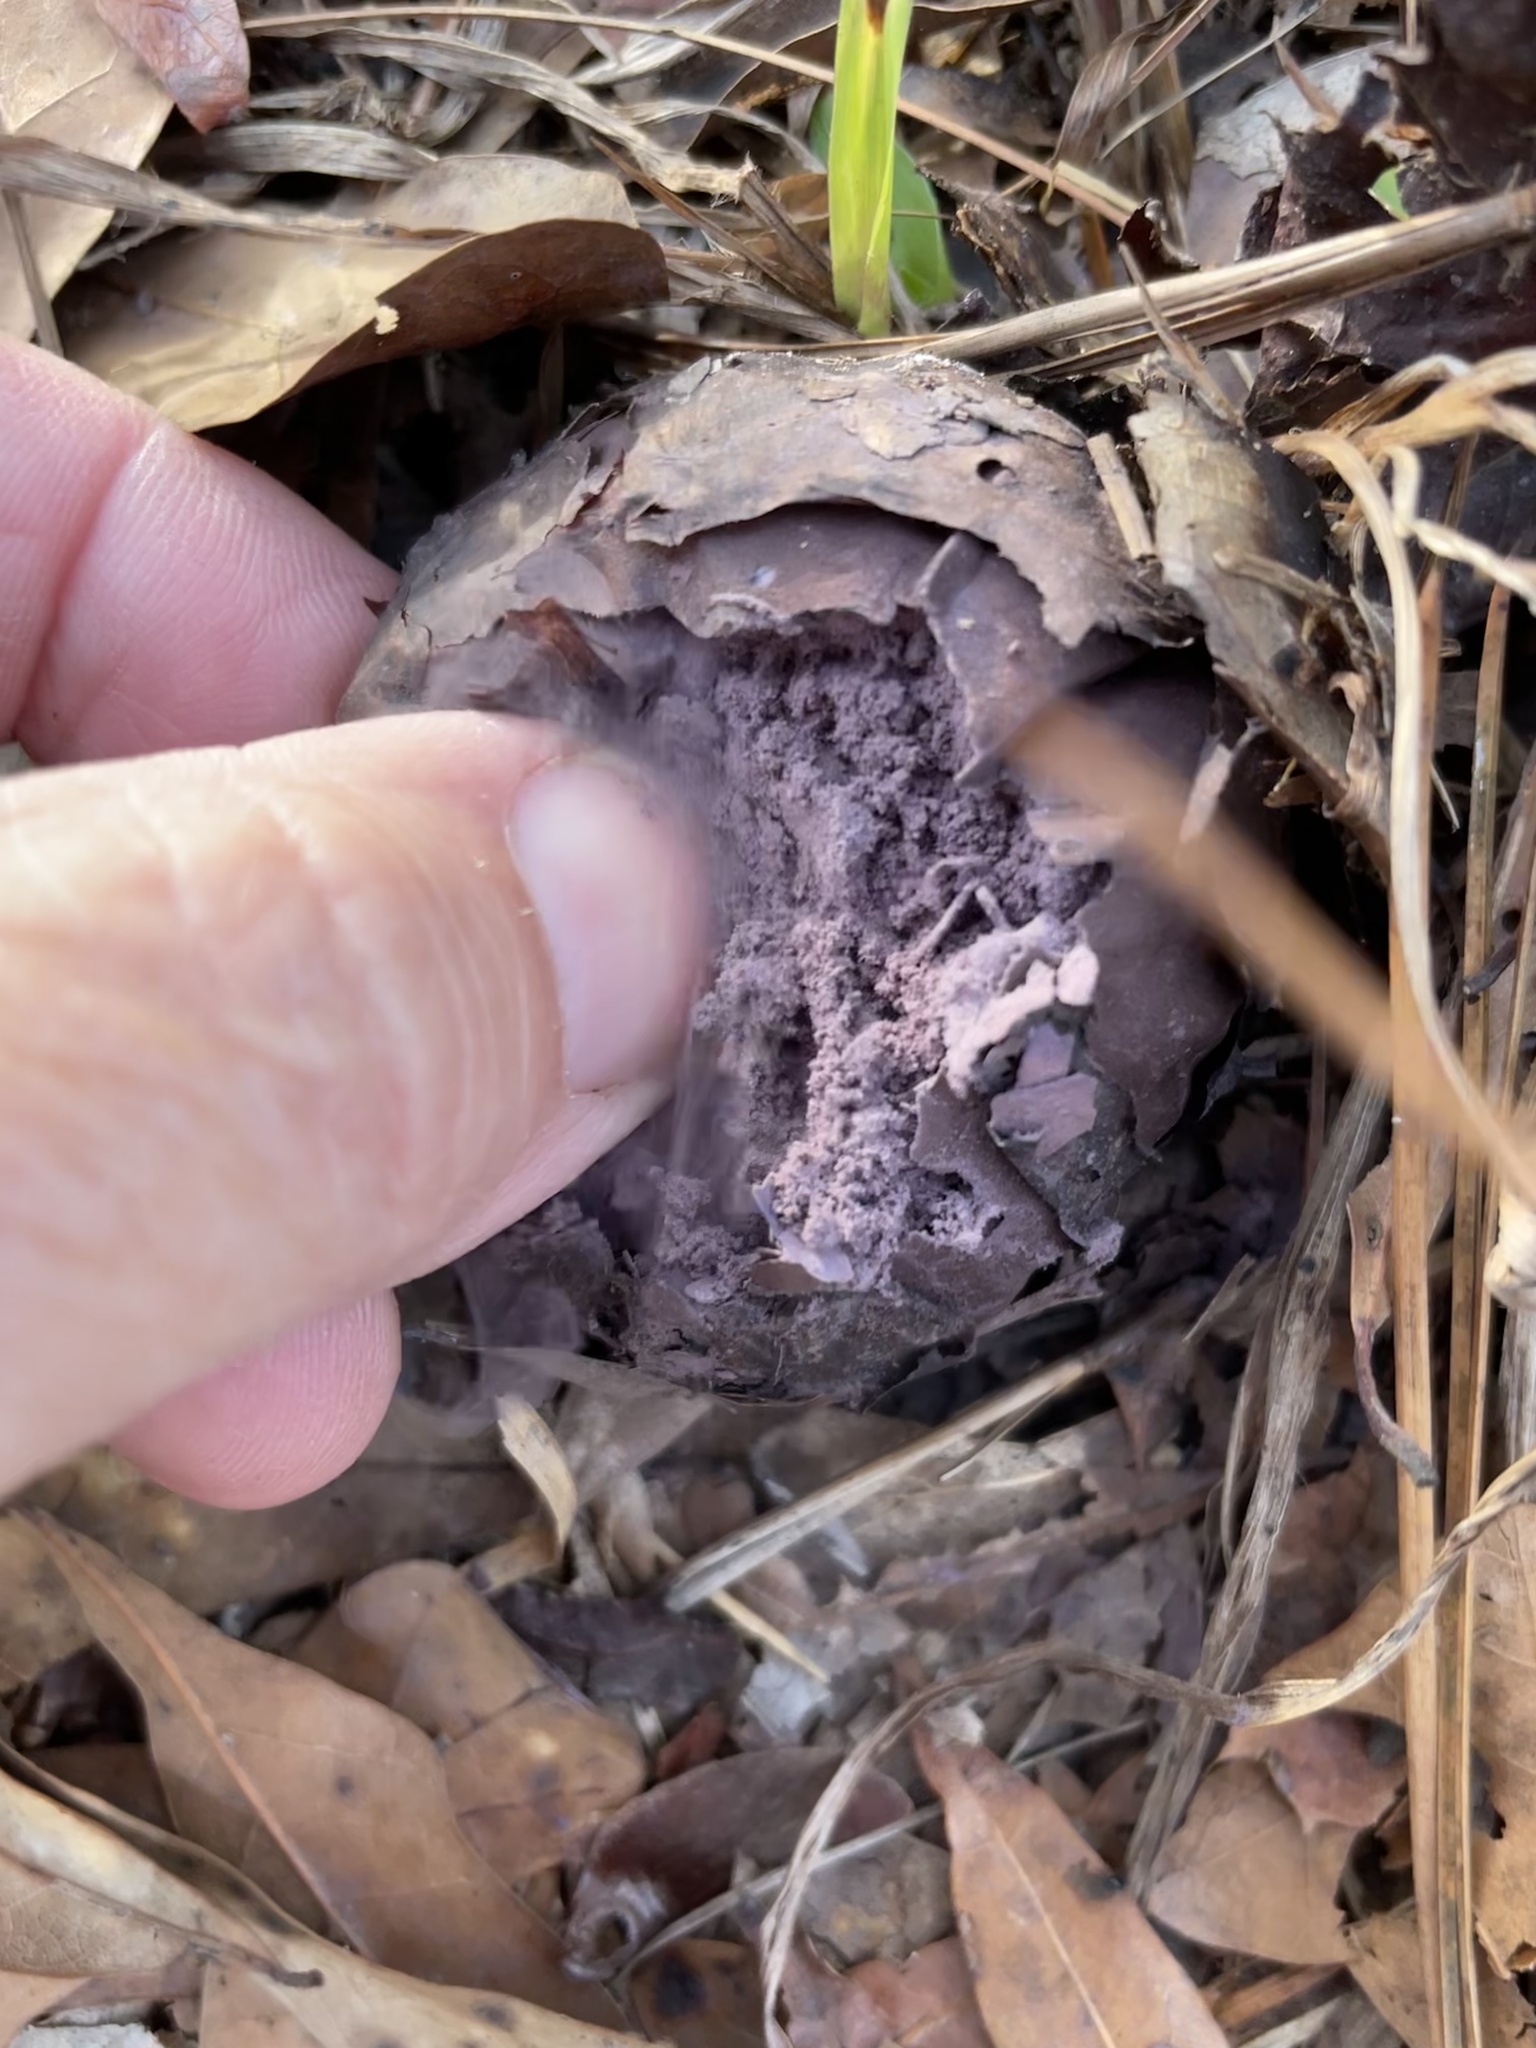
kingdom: Fungi
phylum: Basidiomycota
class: Agaricomycetes
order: Agaricales
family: Lycoperdaceae
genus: Calvatia
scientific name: Calvatia cyathiformis
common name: Purple-spored puffball
